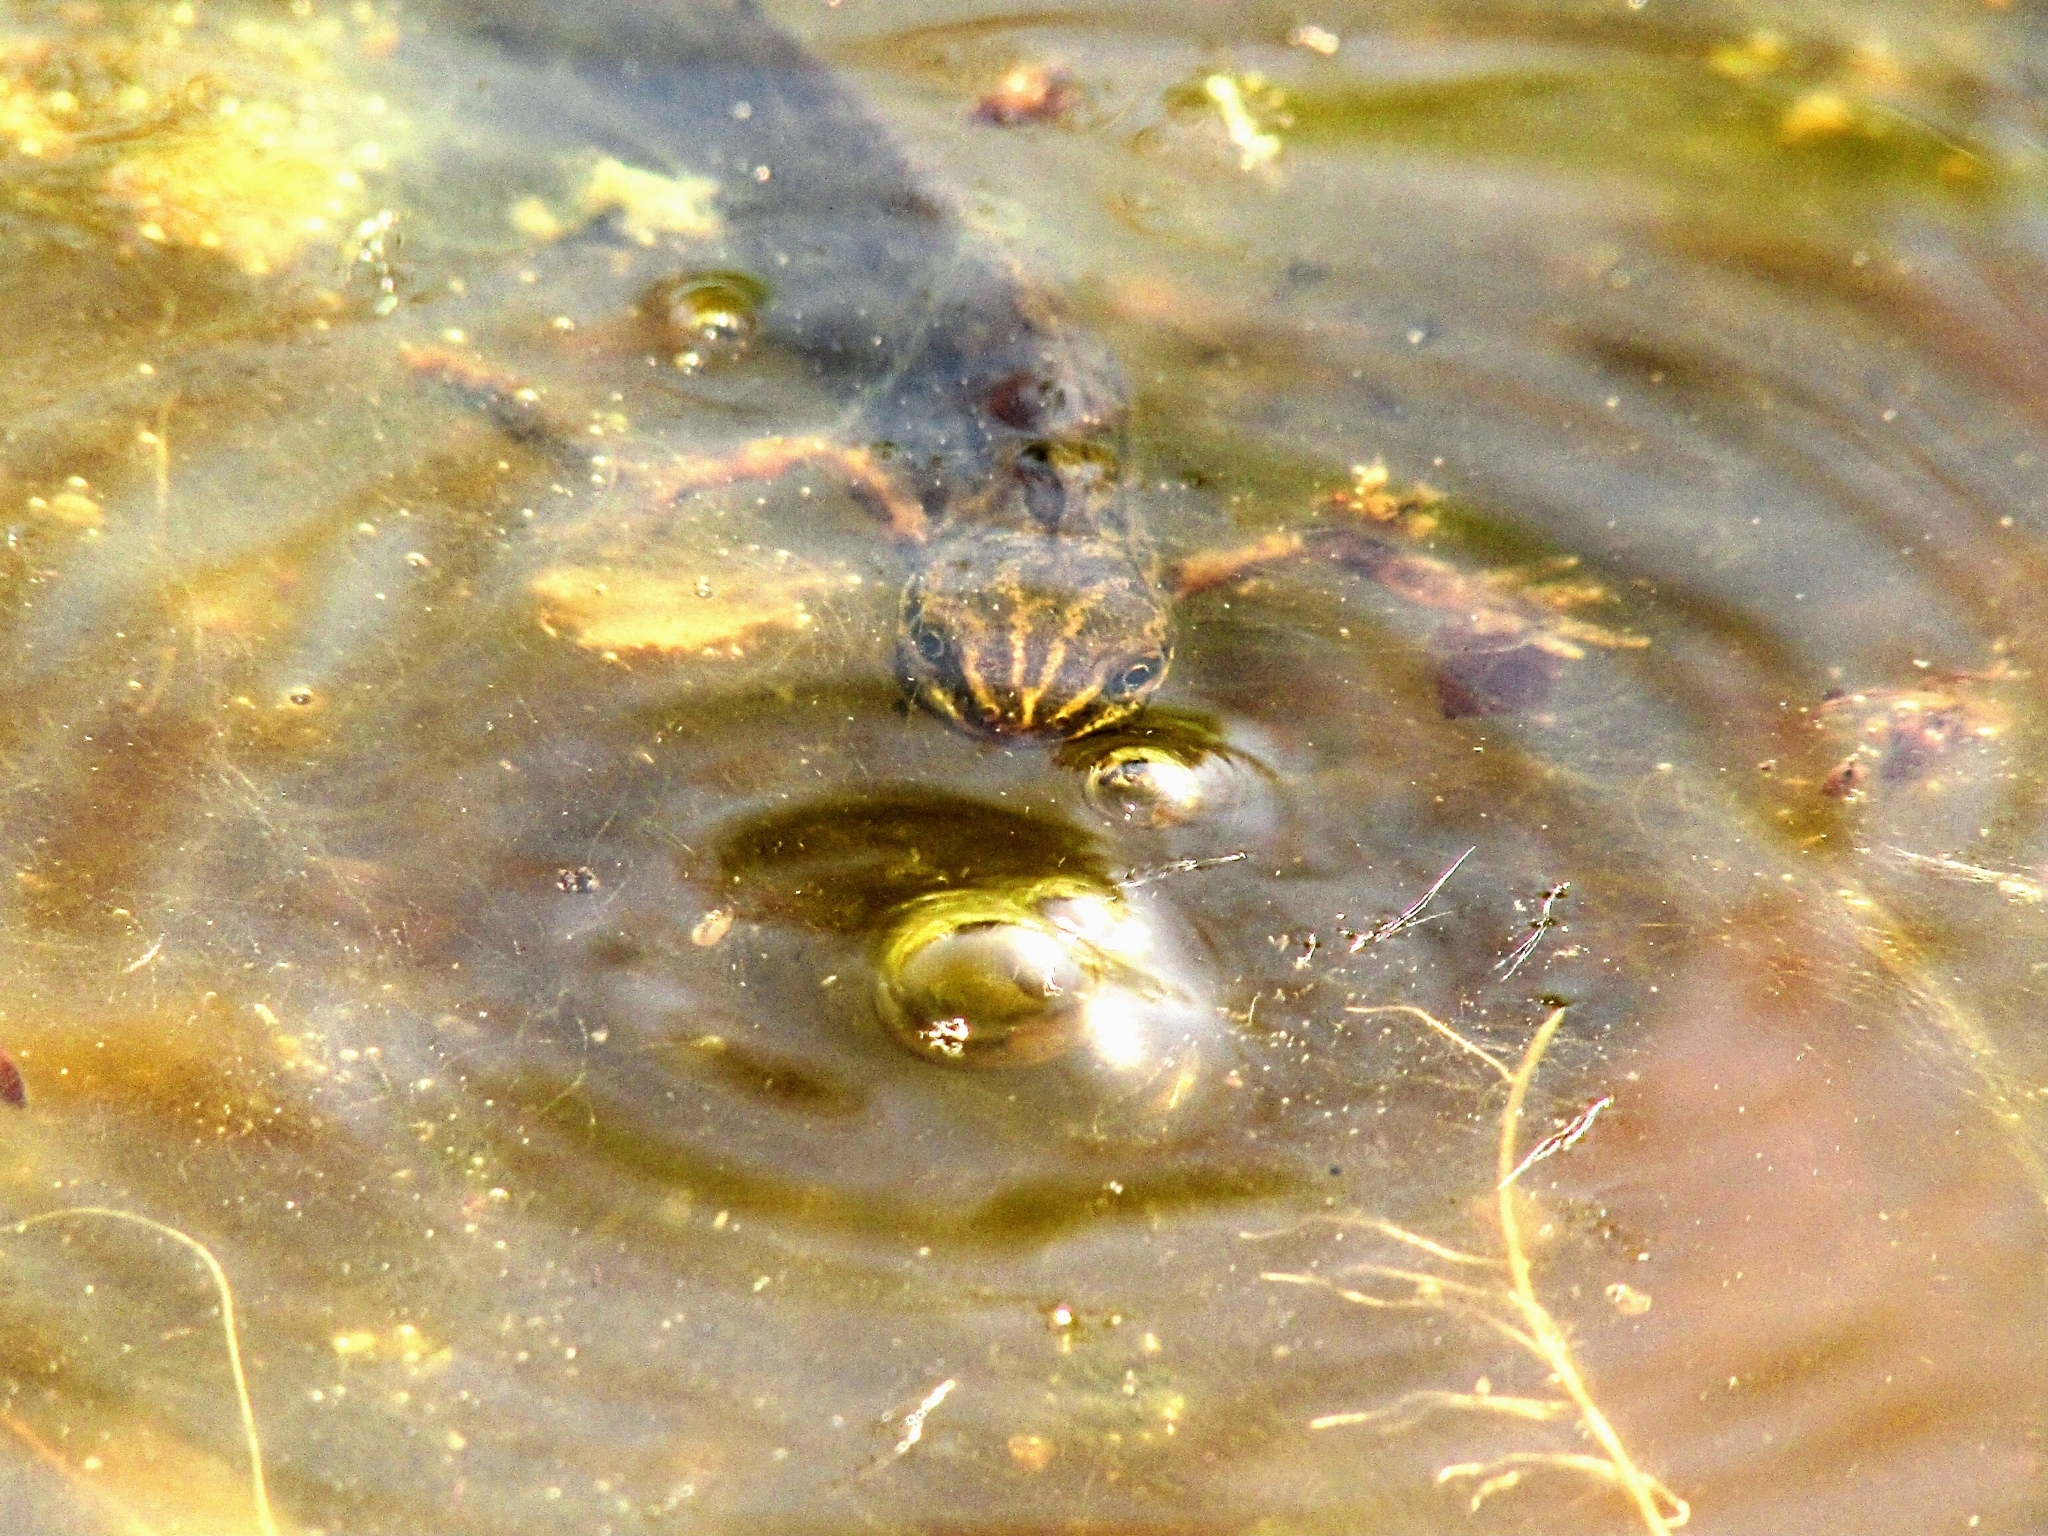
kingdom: Animalia
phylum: Chordata
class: Amphibia
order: Caudata
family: Salamandridae
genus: Lissotriton
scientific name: Lissotriton vulgaris
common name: Smooth newt
